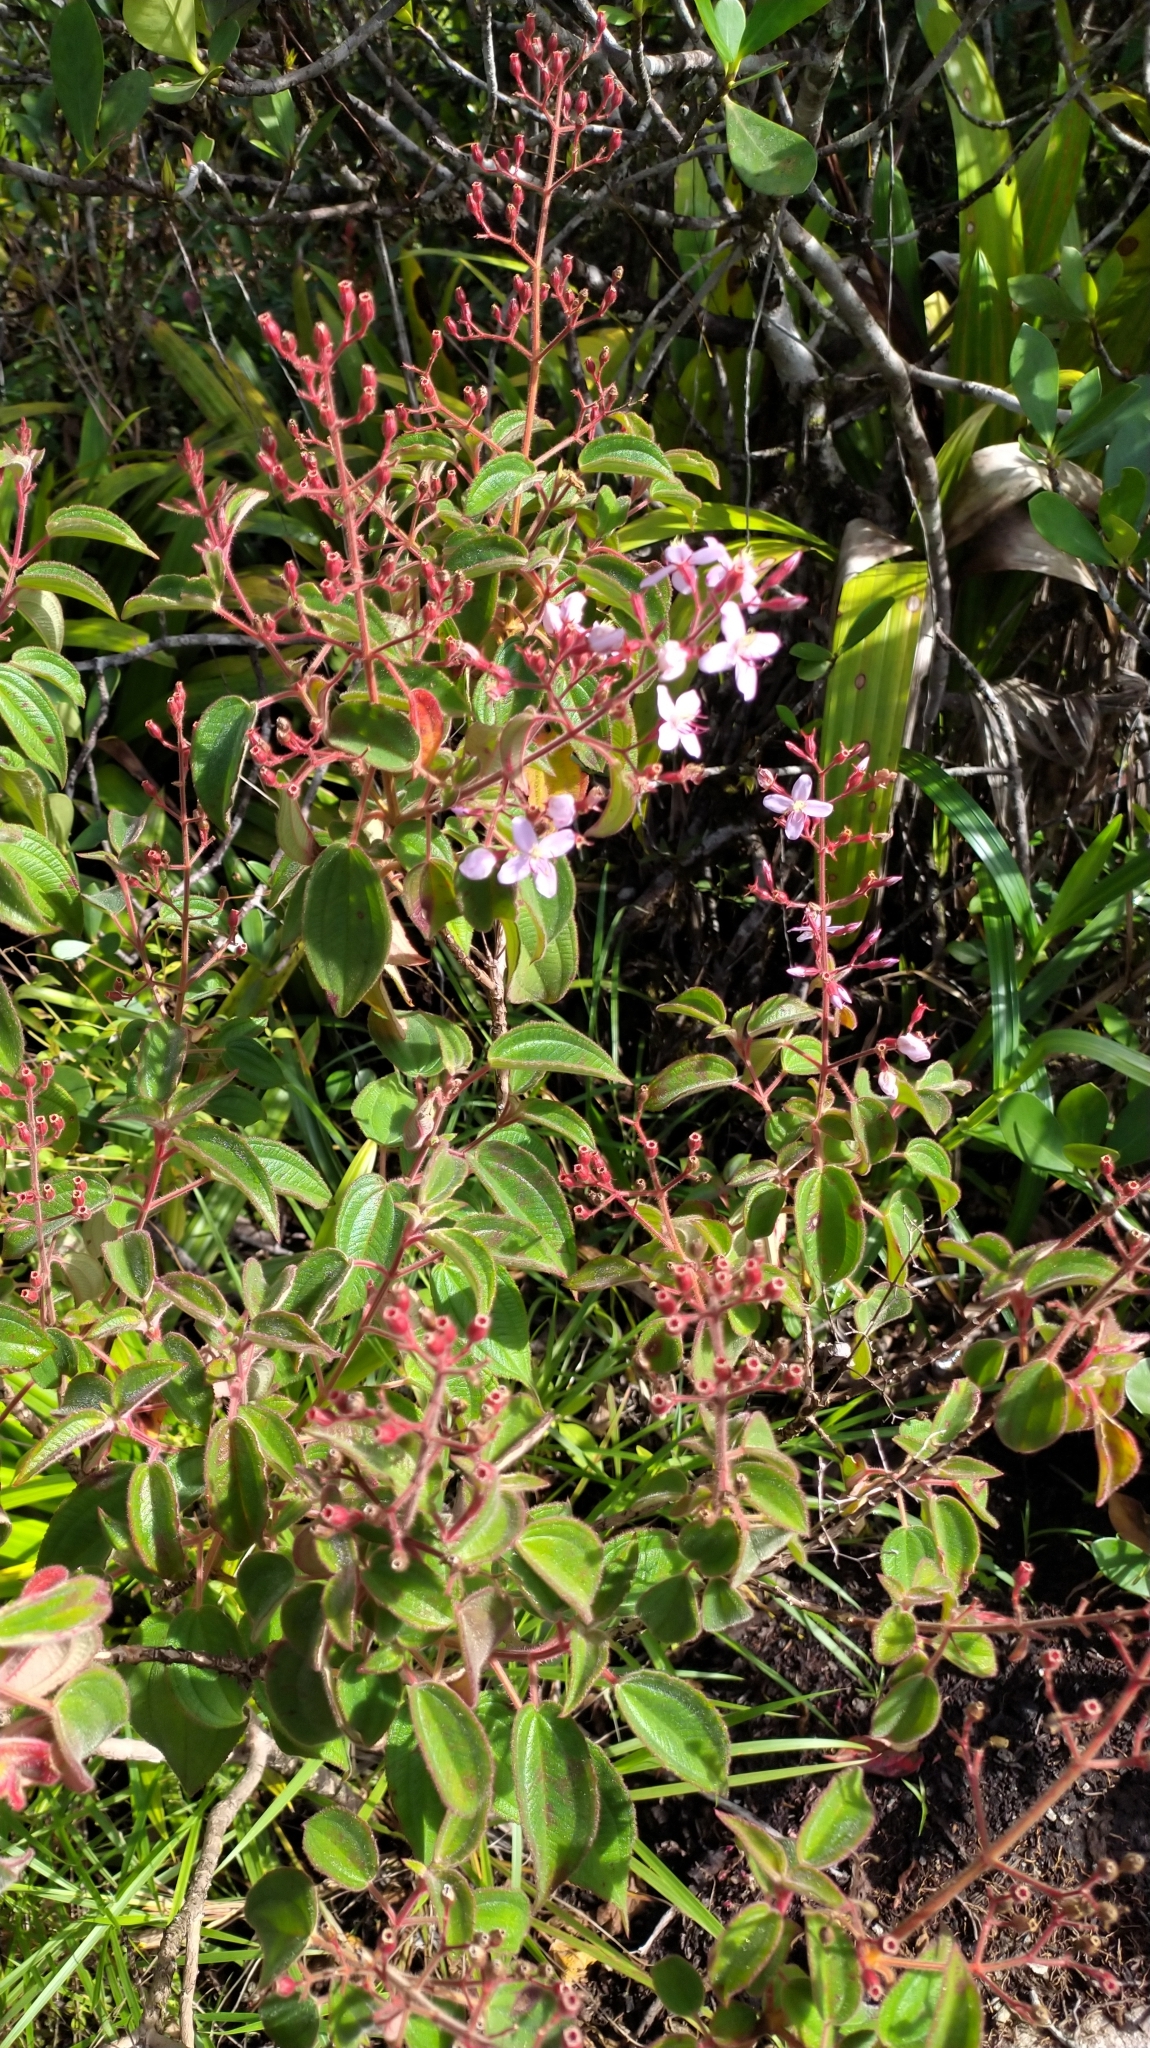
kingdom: Plantae
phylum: Tracheophyta
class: Magnoliopsida
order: Myrtales
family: Melastomataceae
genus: Ernestia
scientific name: Ernestia granvillei
